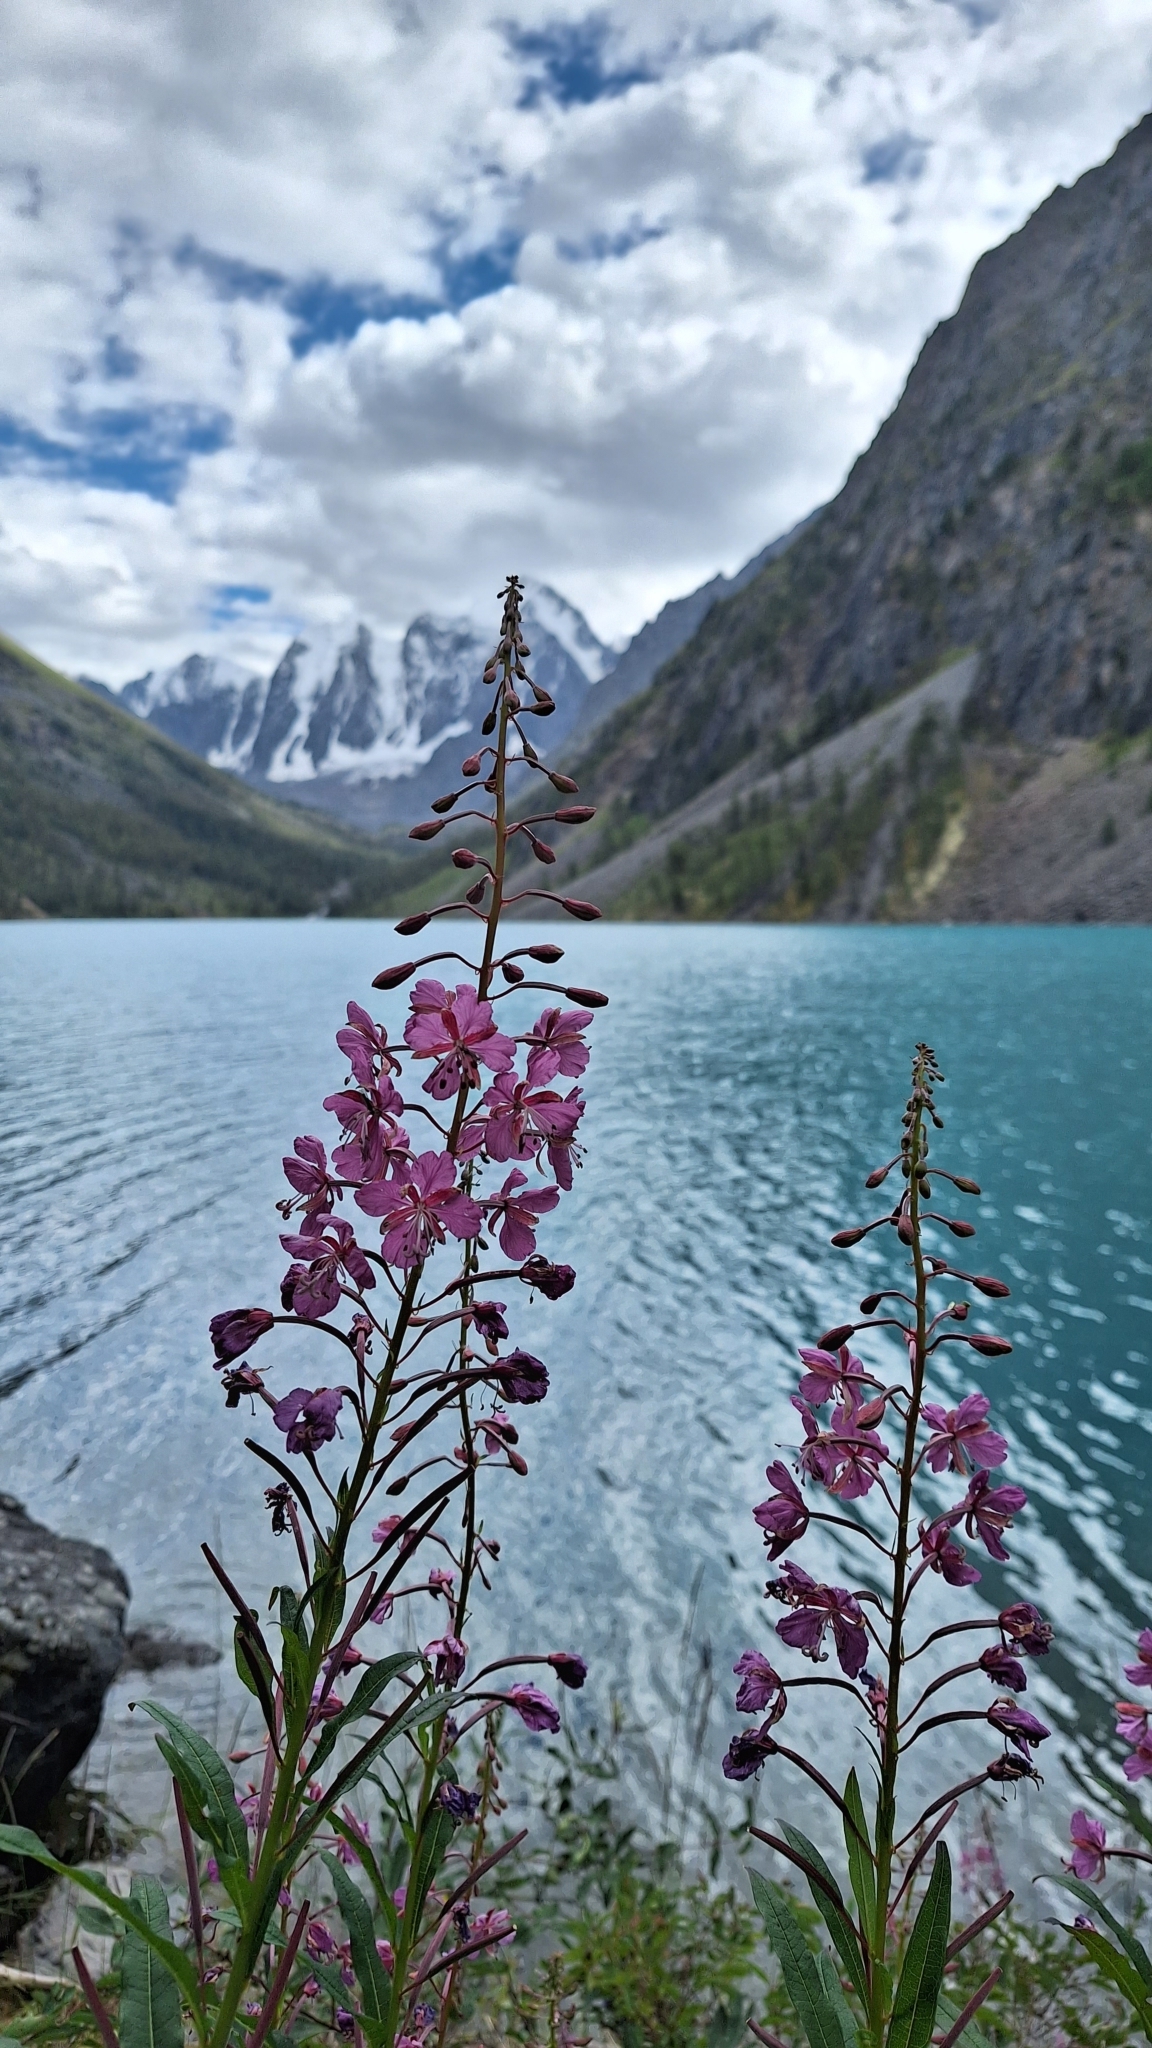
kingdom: Plantae
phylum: Tracheophyta
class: Magnoliopsida
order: Myrtales
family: Onagraceae
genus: Chamaenerion
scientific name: Chamaenerion angustifolium
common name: Fireweed
